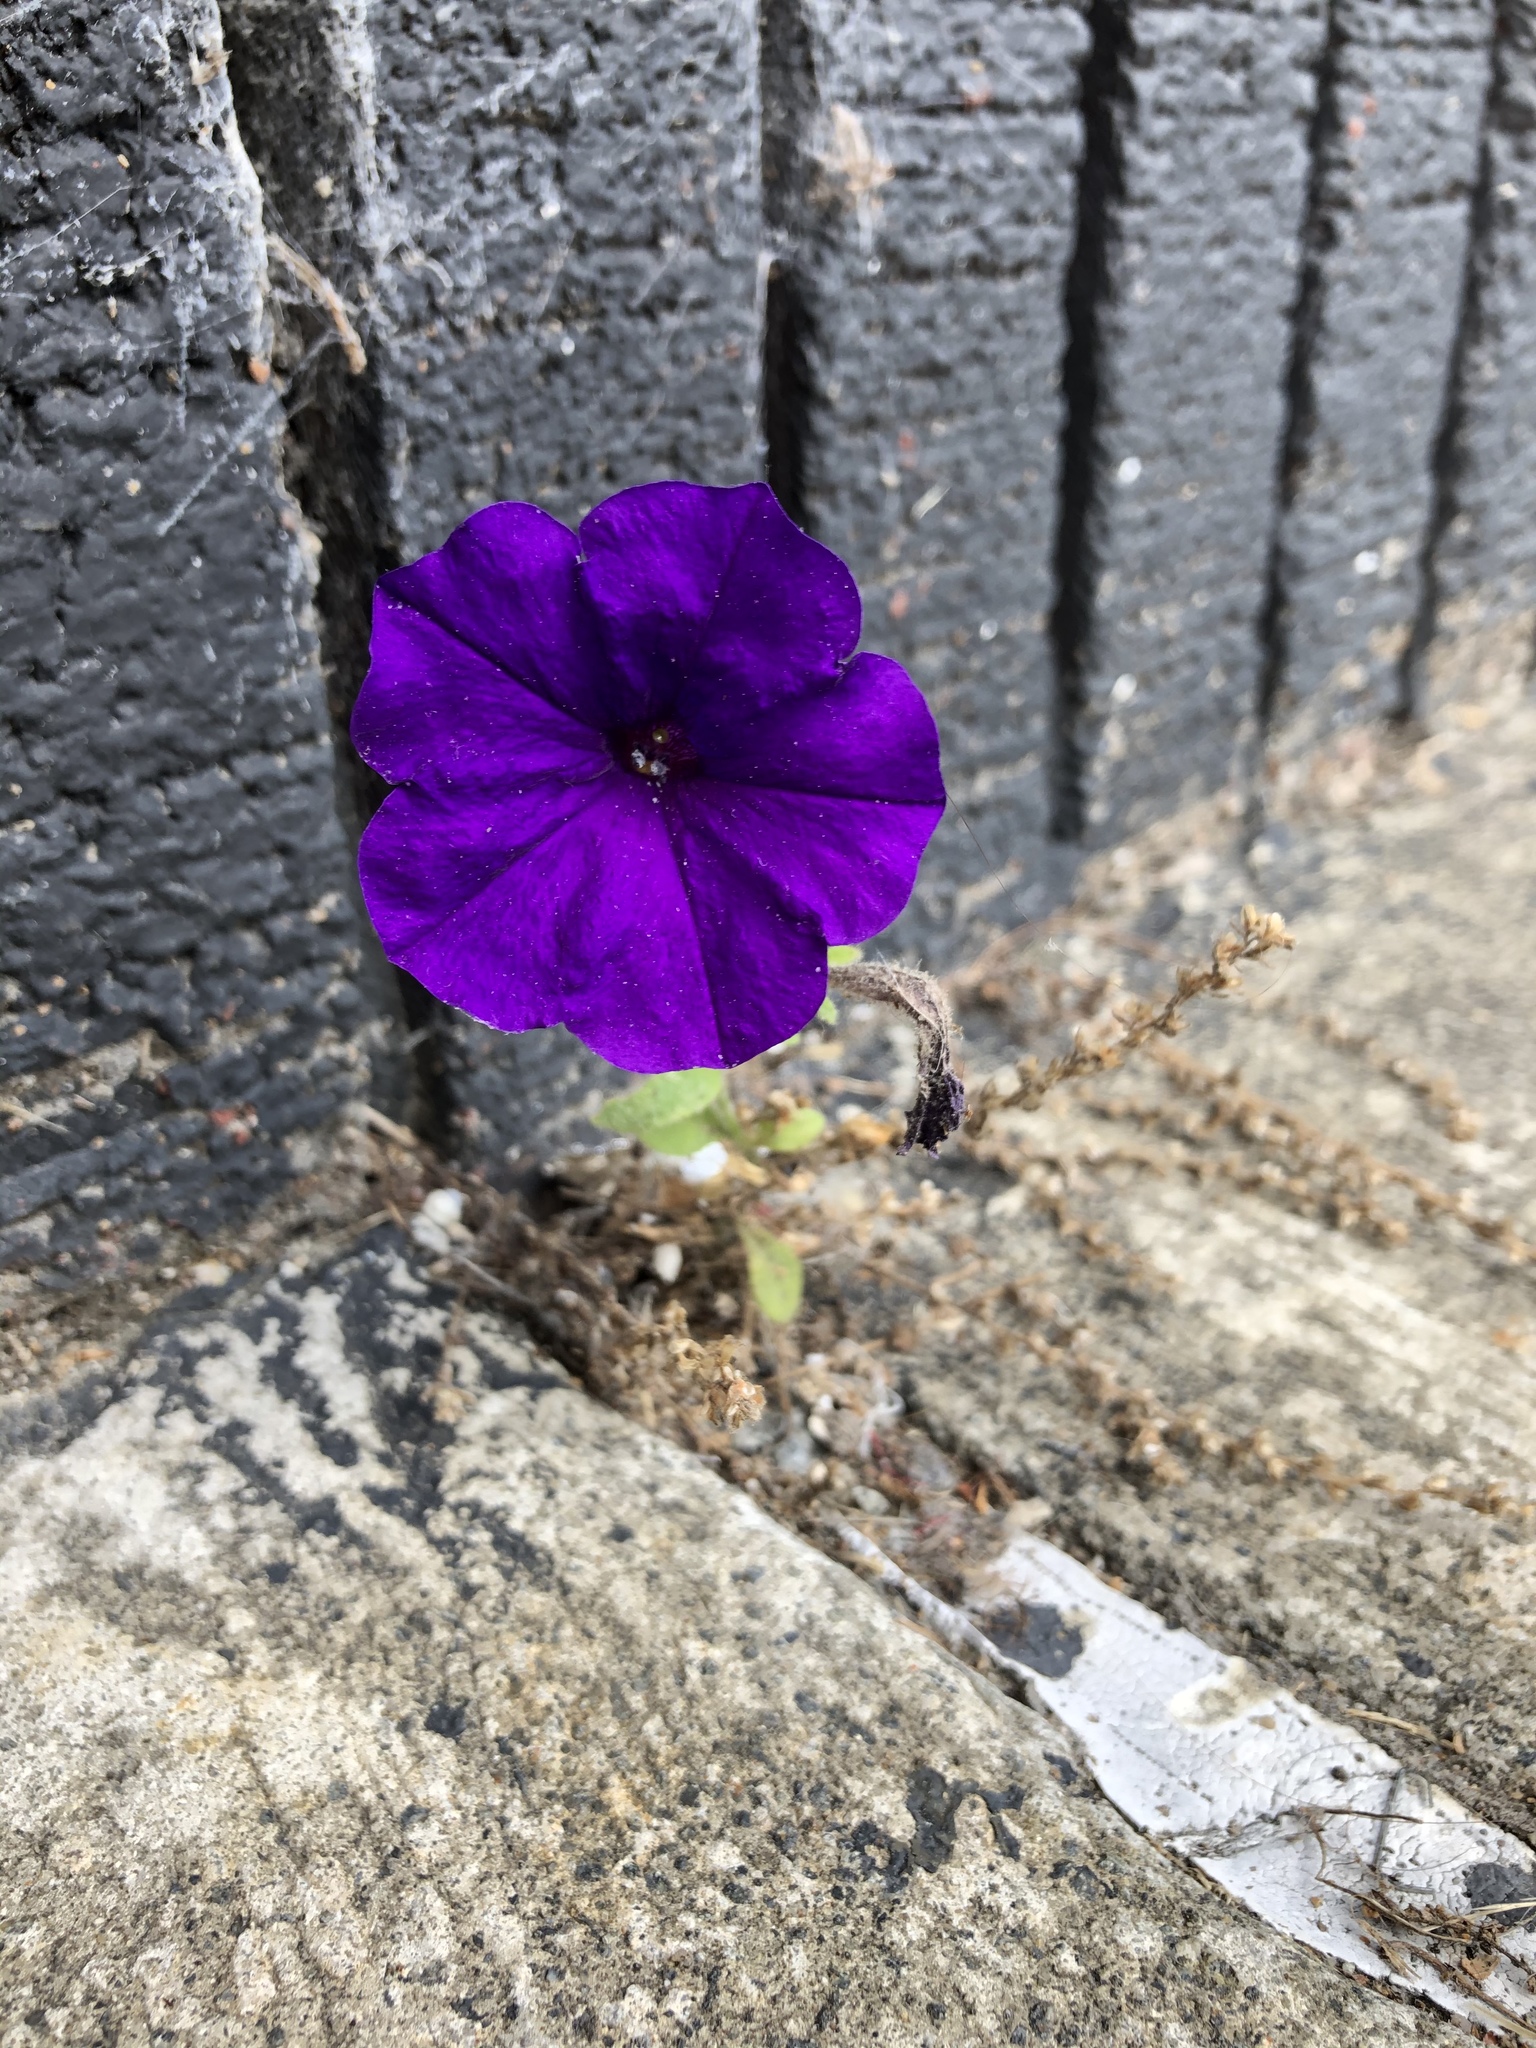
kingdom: Plantae
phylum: Tracheophyta
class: Magnoliopsida
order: Solanales
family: Solanaceae
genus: Petunia
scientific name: Petunia atkinsiana
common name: Petunia
